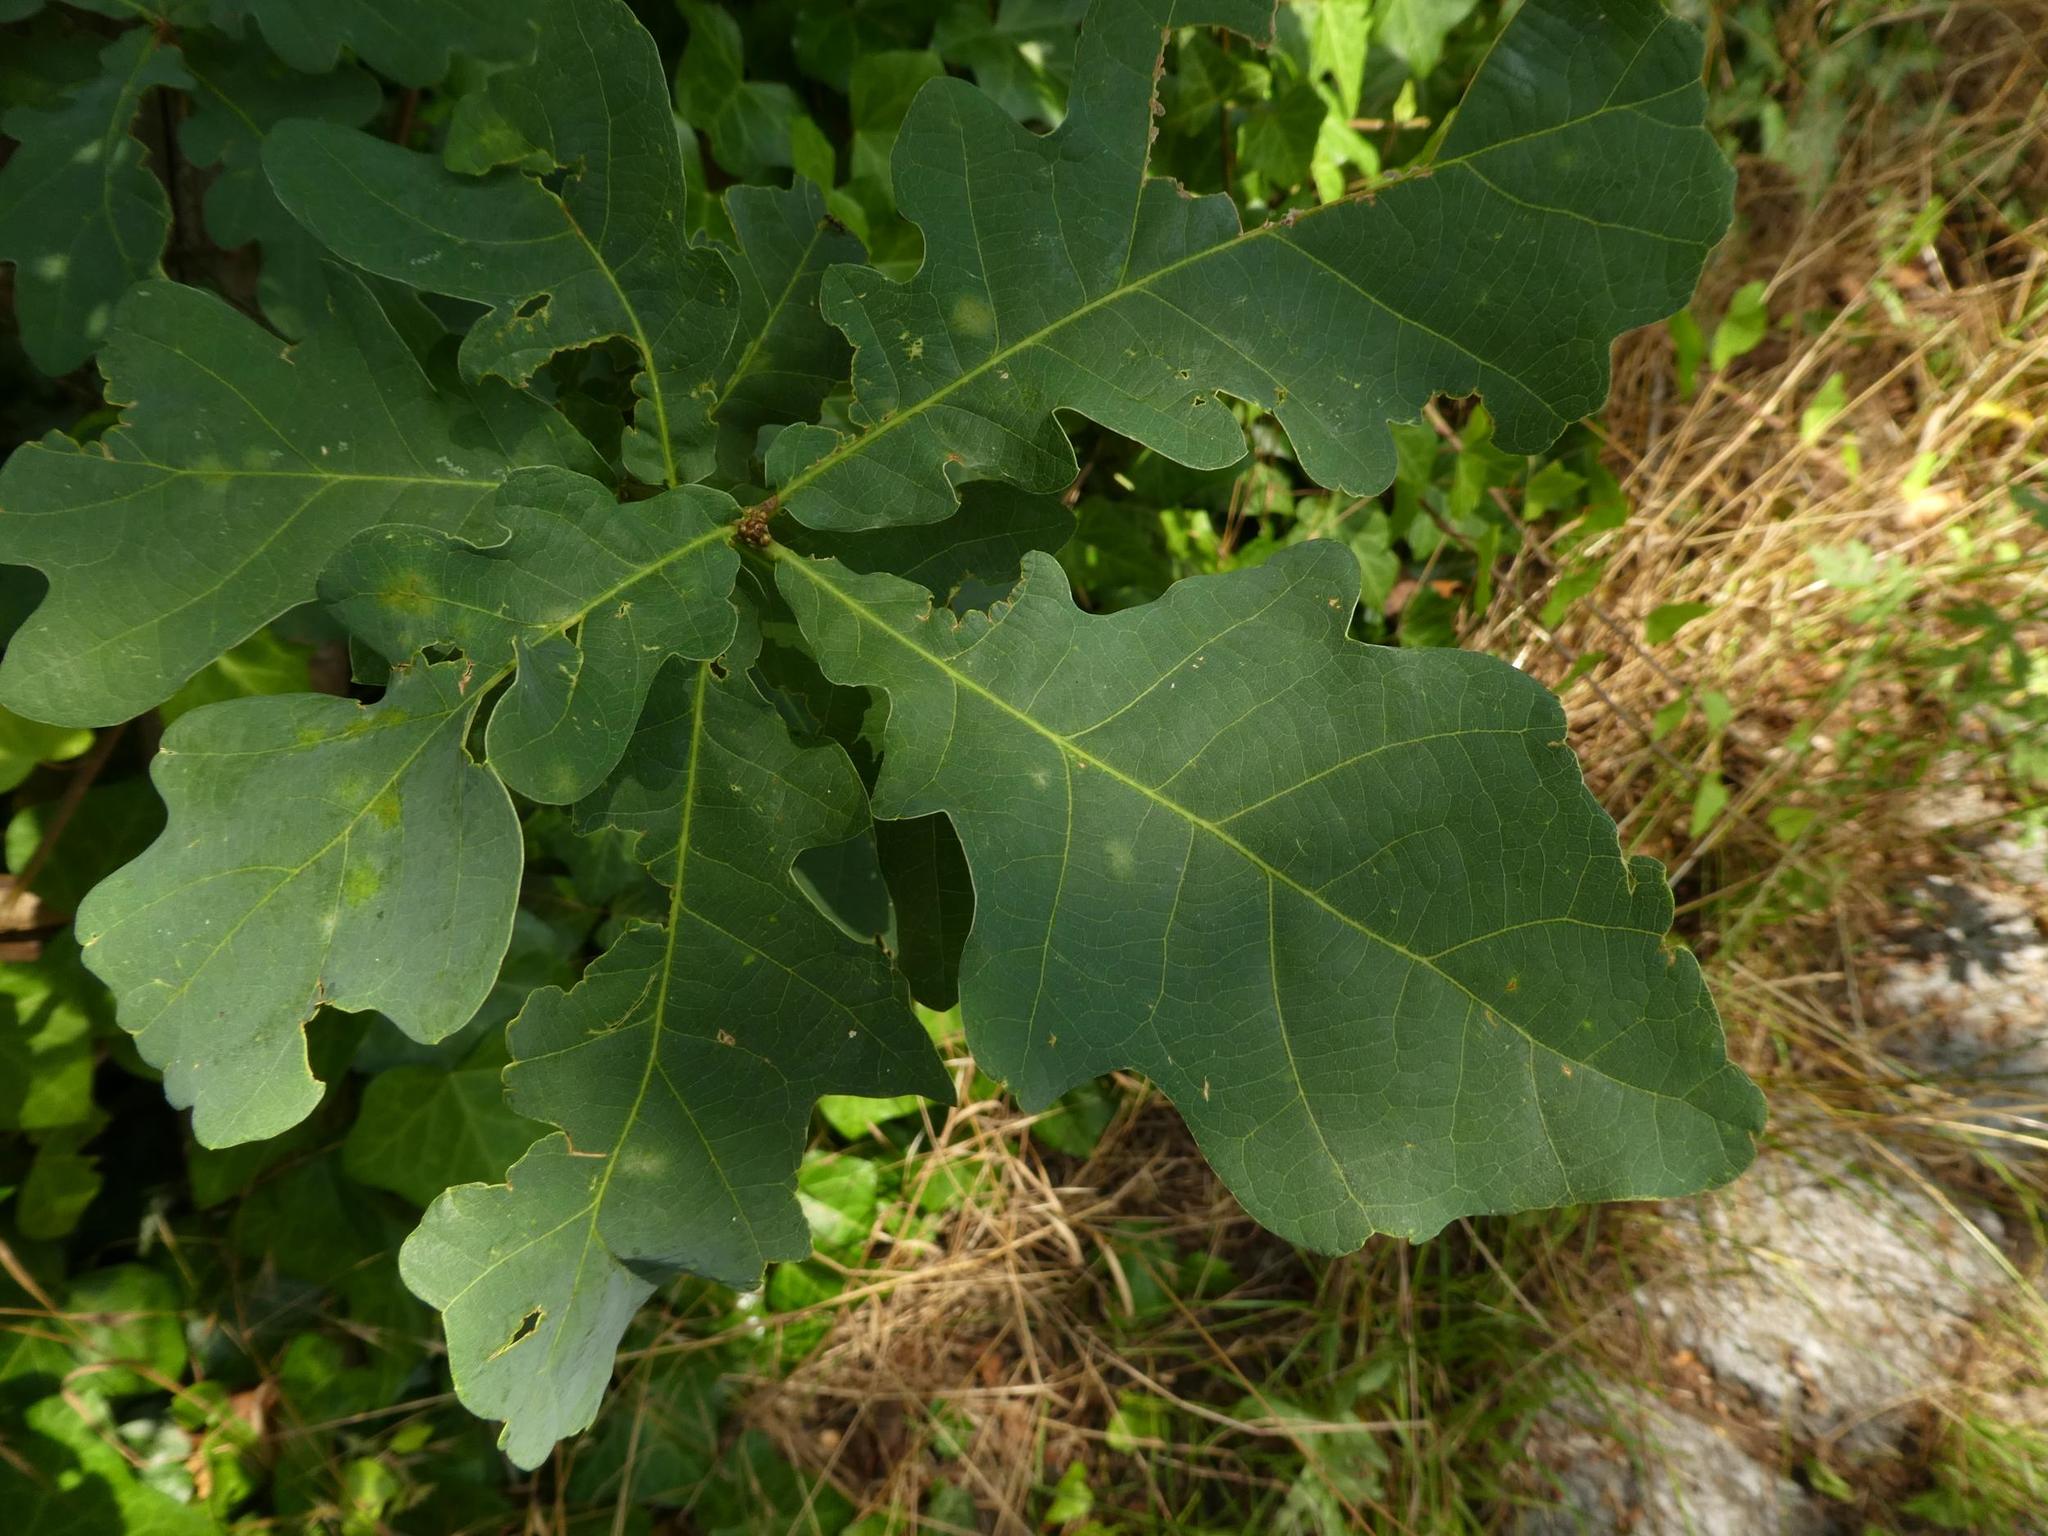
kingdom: Plantae
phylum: Tracheophyta
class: Magnoliopsida
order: Fagales
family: Fagaceae
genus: Quercus
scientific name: Quercus robur
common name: Pedunculate oak
